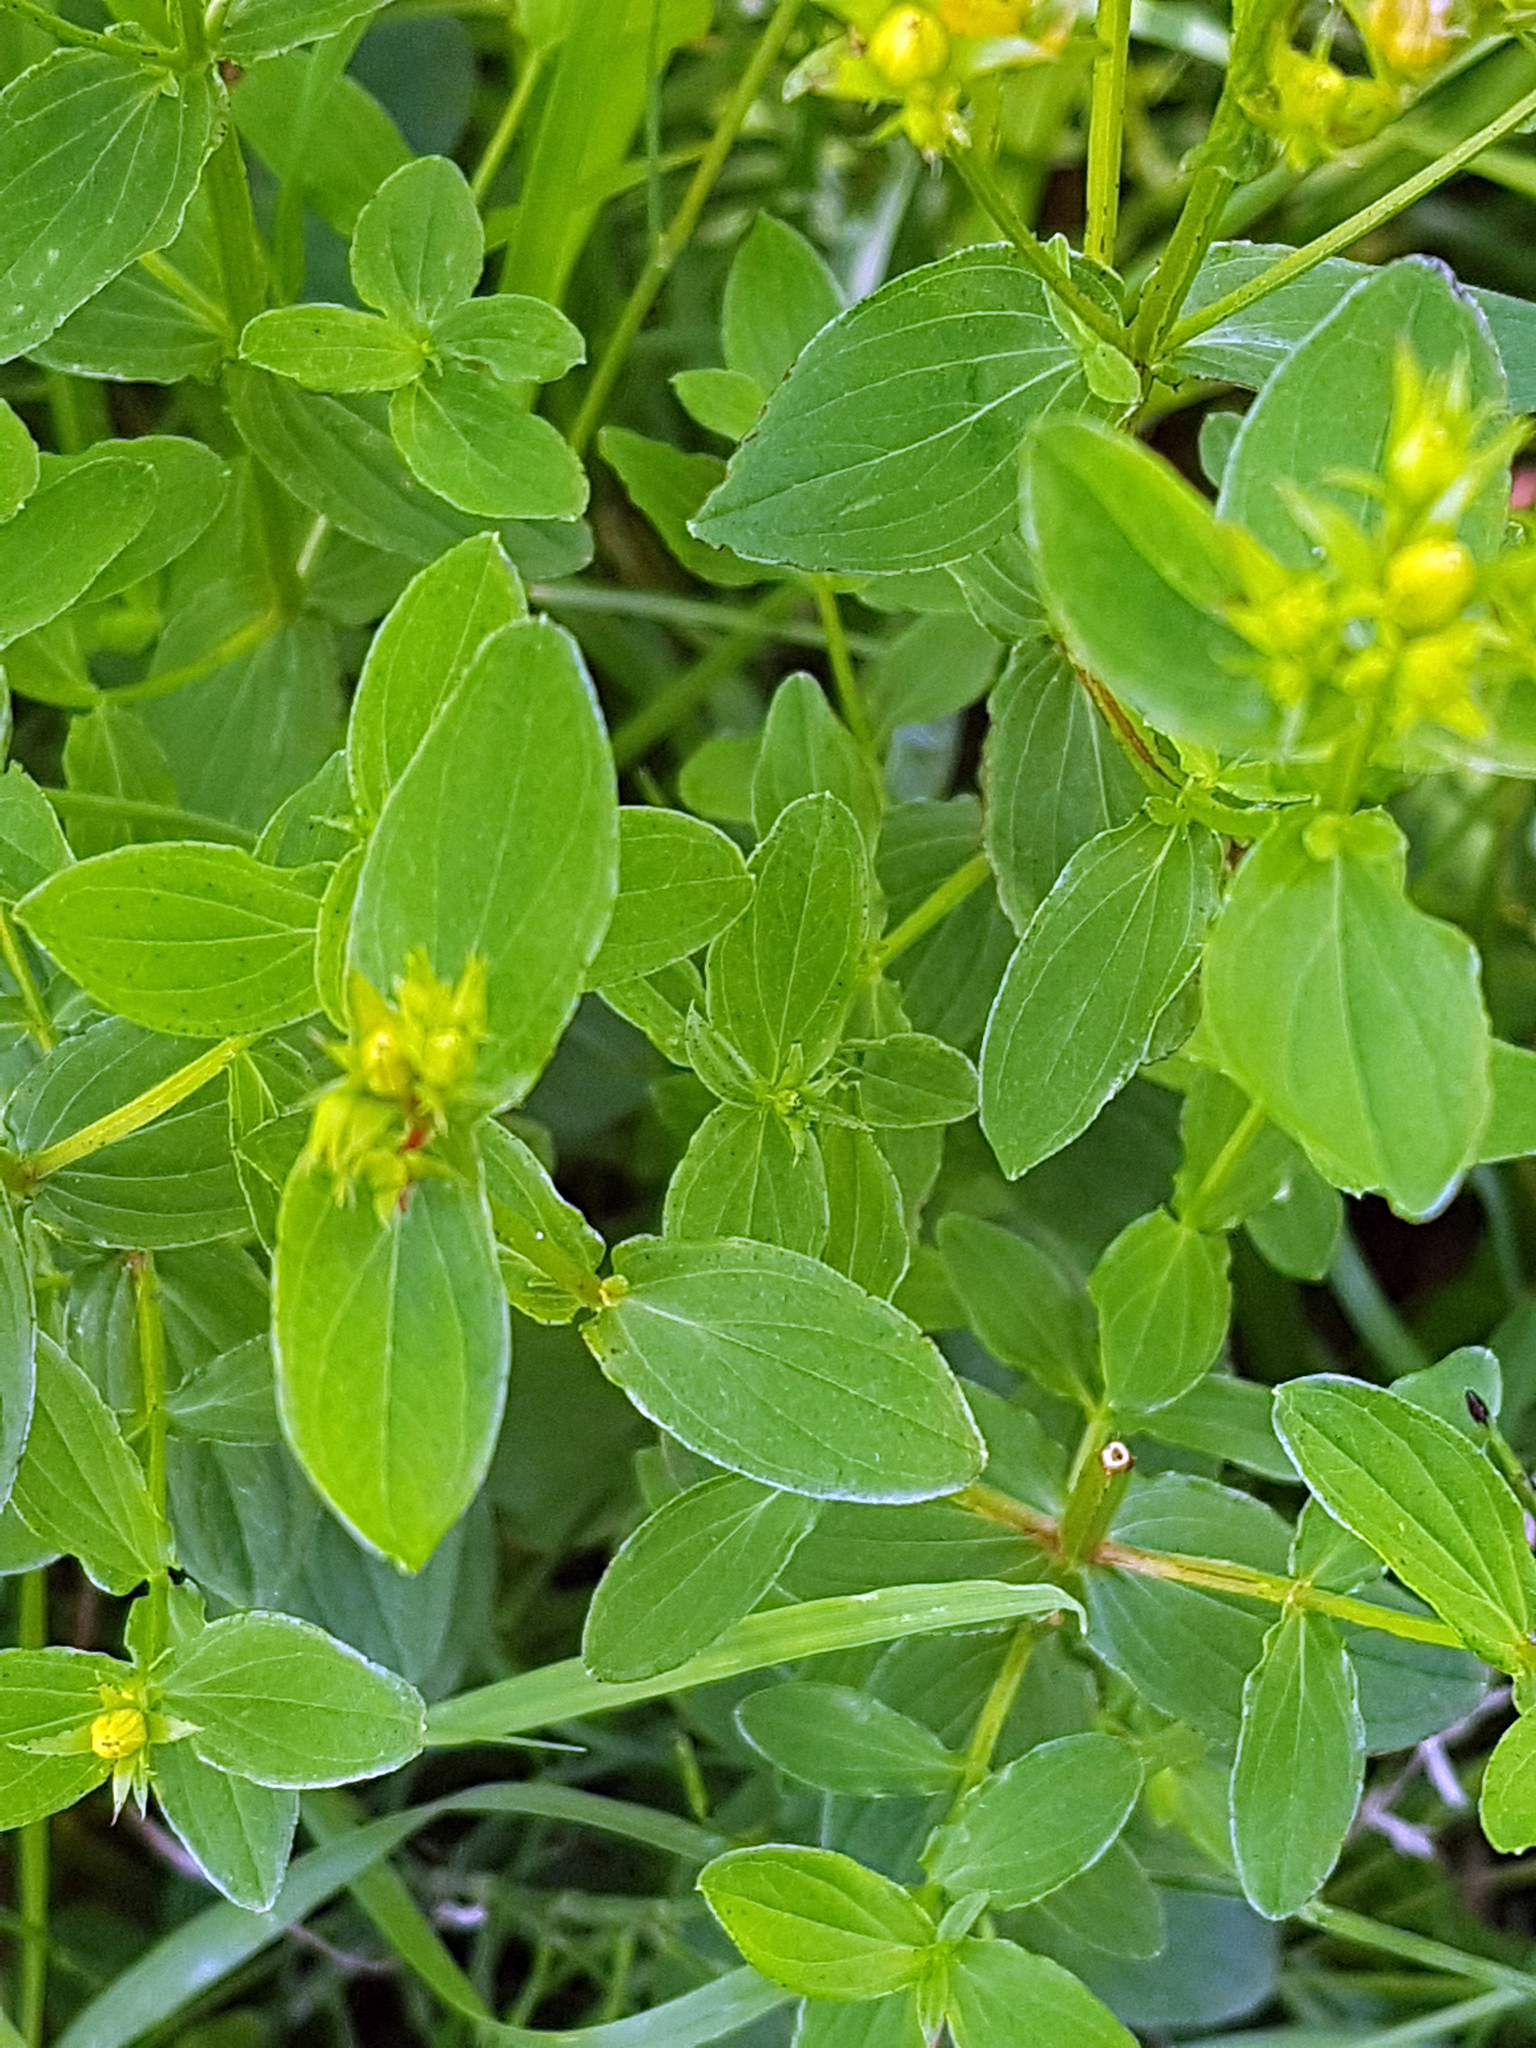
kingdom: Plantae
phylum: Tracheophyta
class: Magnoliopsida
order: Malpighiales
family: Hypericaceae
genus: Hypericum
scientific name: Hypericum tetrapterum
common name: Square-stalked st. john's-wort
